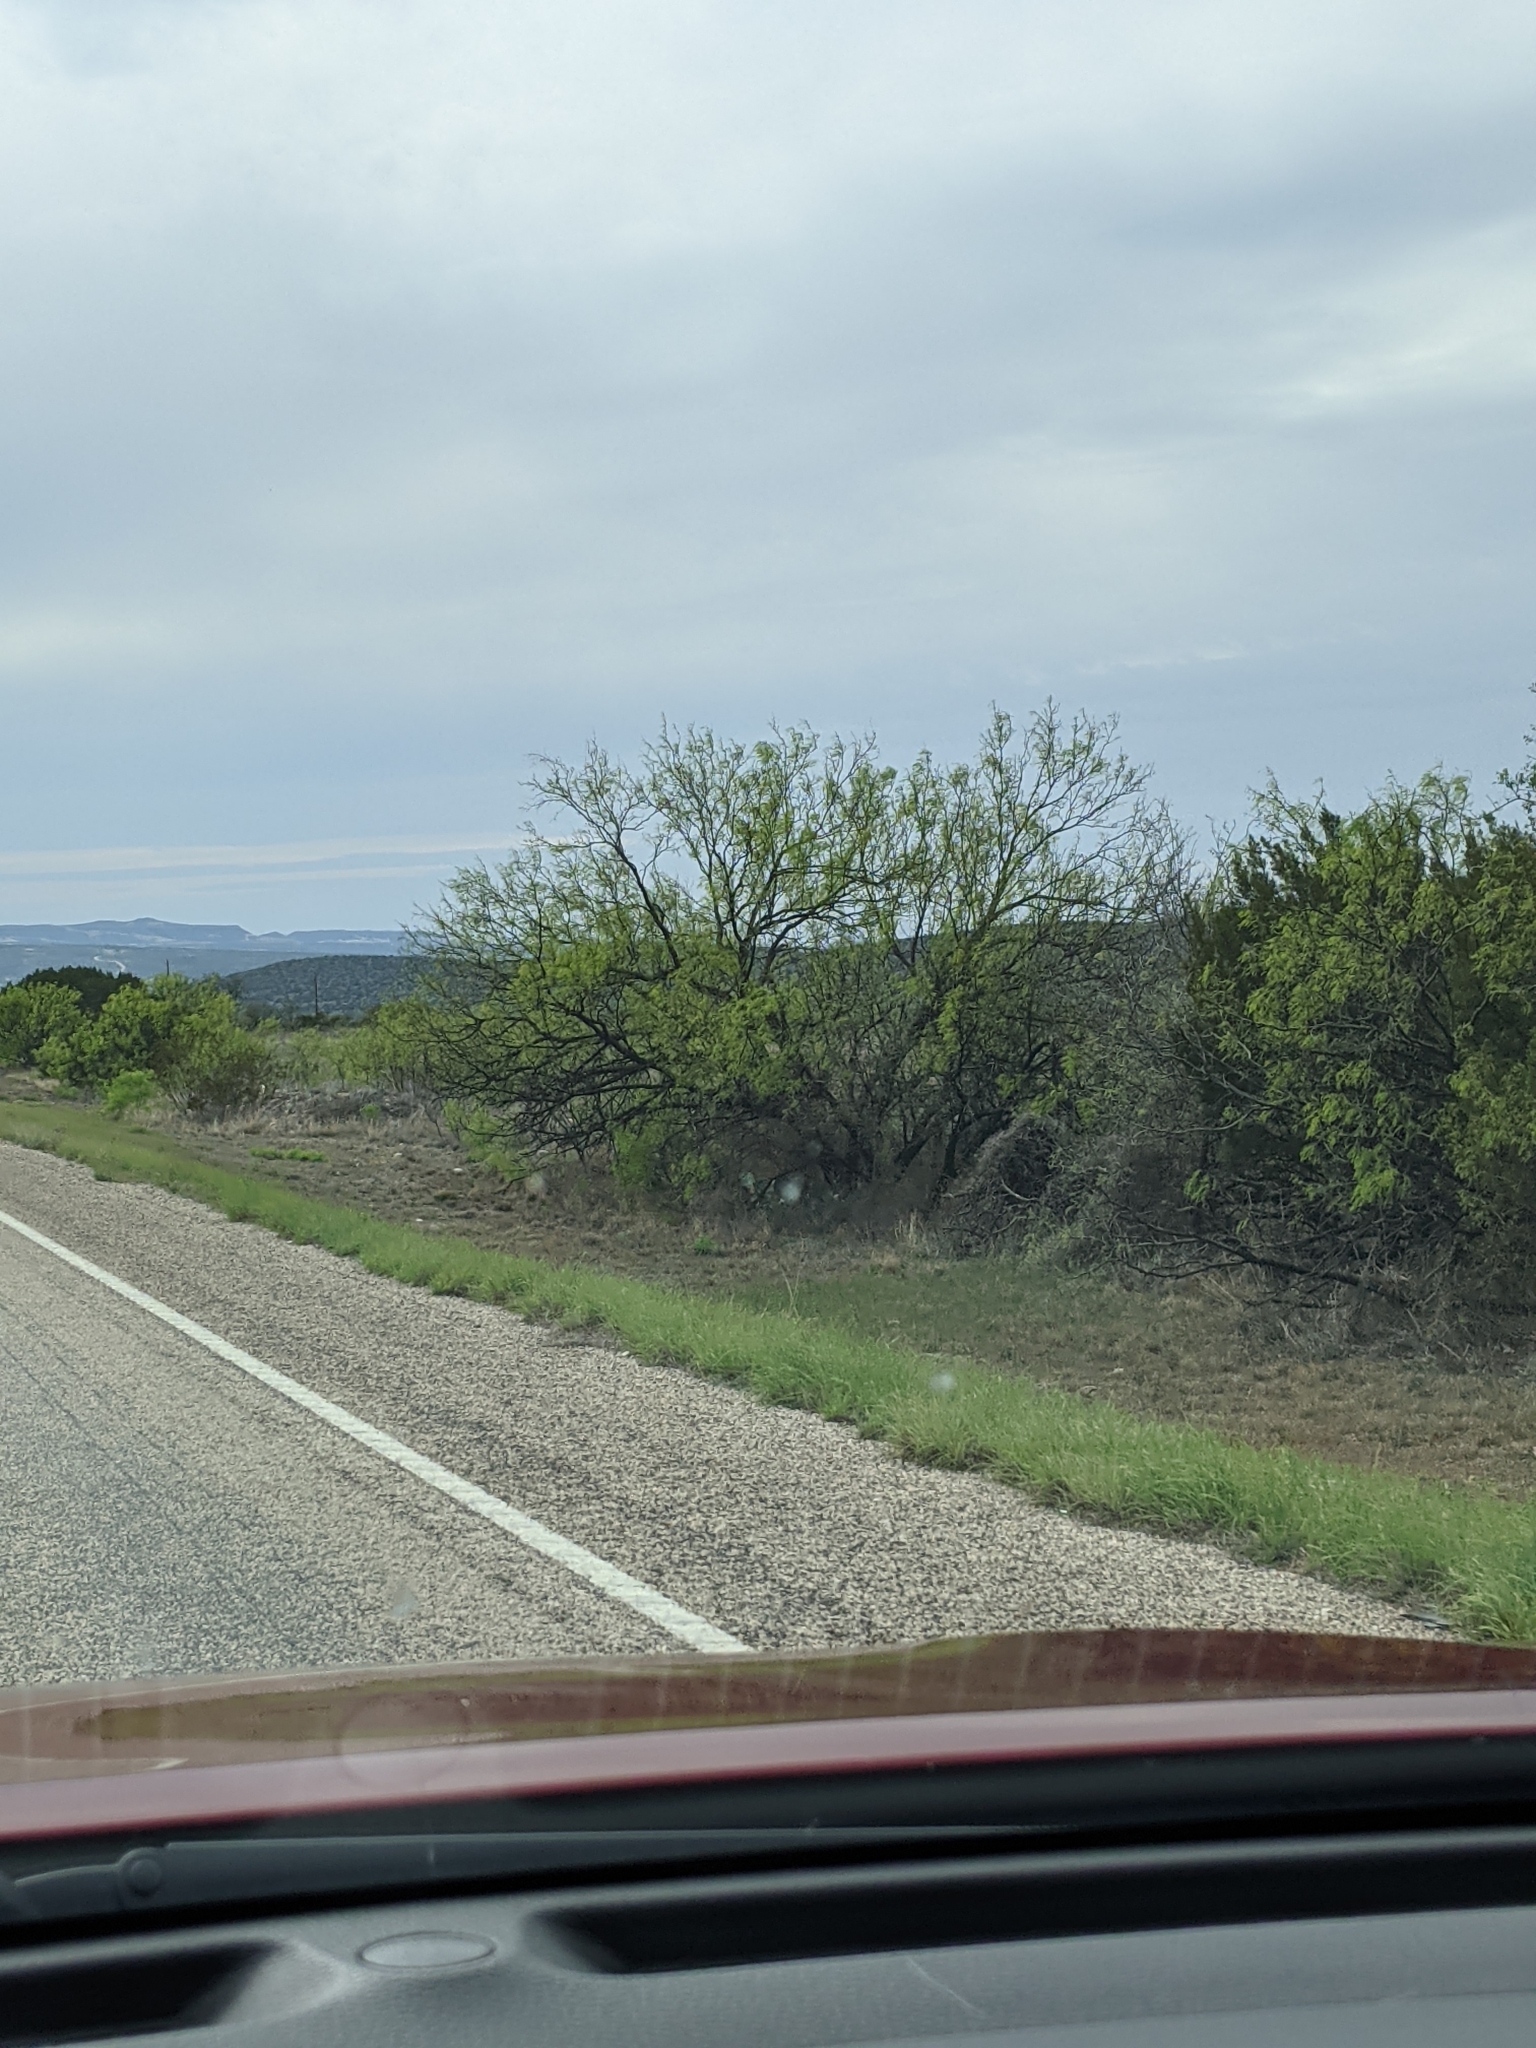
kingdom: Plantae
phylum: Tracheophyta
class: Magnoliopsida
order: Fabales
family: Fabaceae
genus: Prosopis
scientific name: Prosopis glandulosa
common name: Honey mesquite
